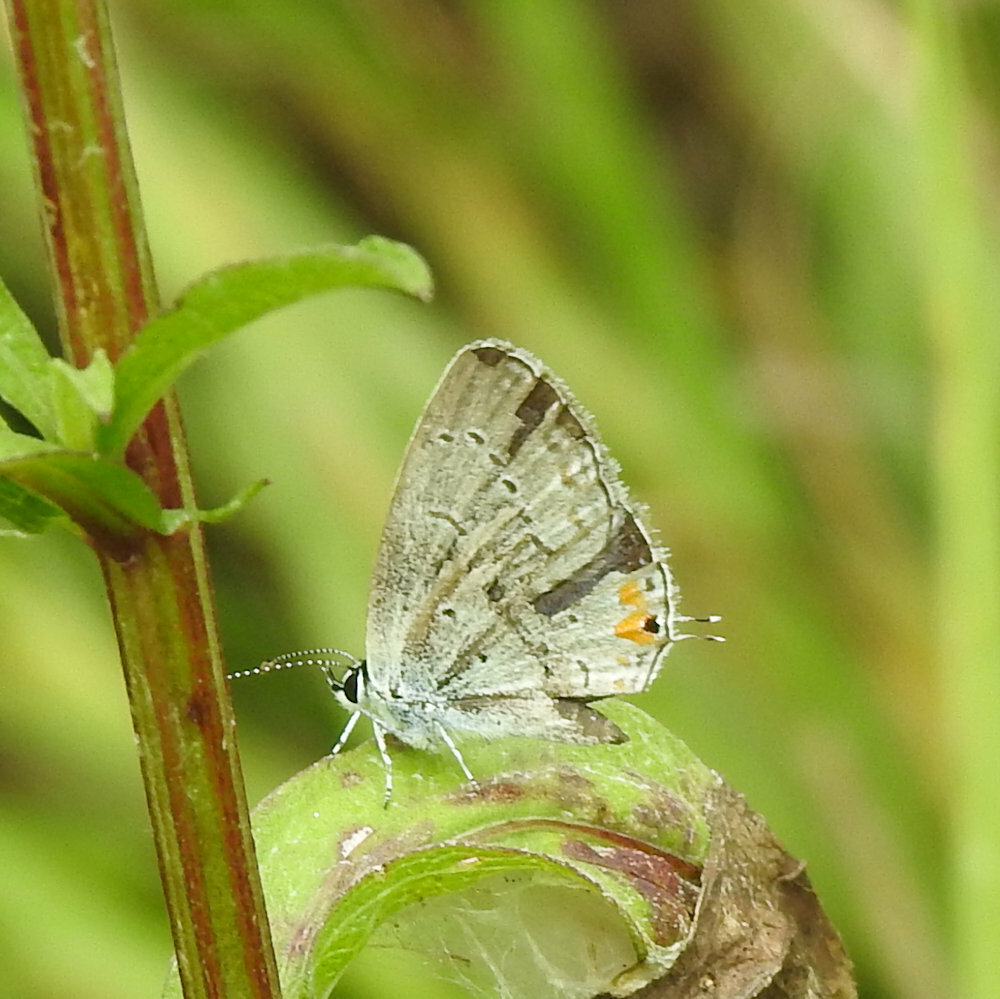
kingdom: Animalia
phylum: Arthropoda
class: Insecta
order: Lepidoptera
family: Lycaenidae
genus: Elkalyce
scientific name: Elkalyce comyntas
